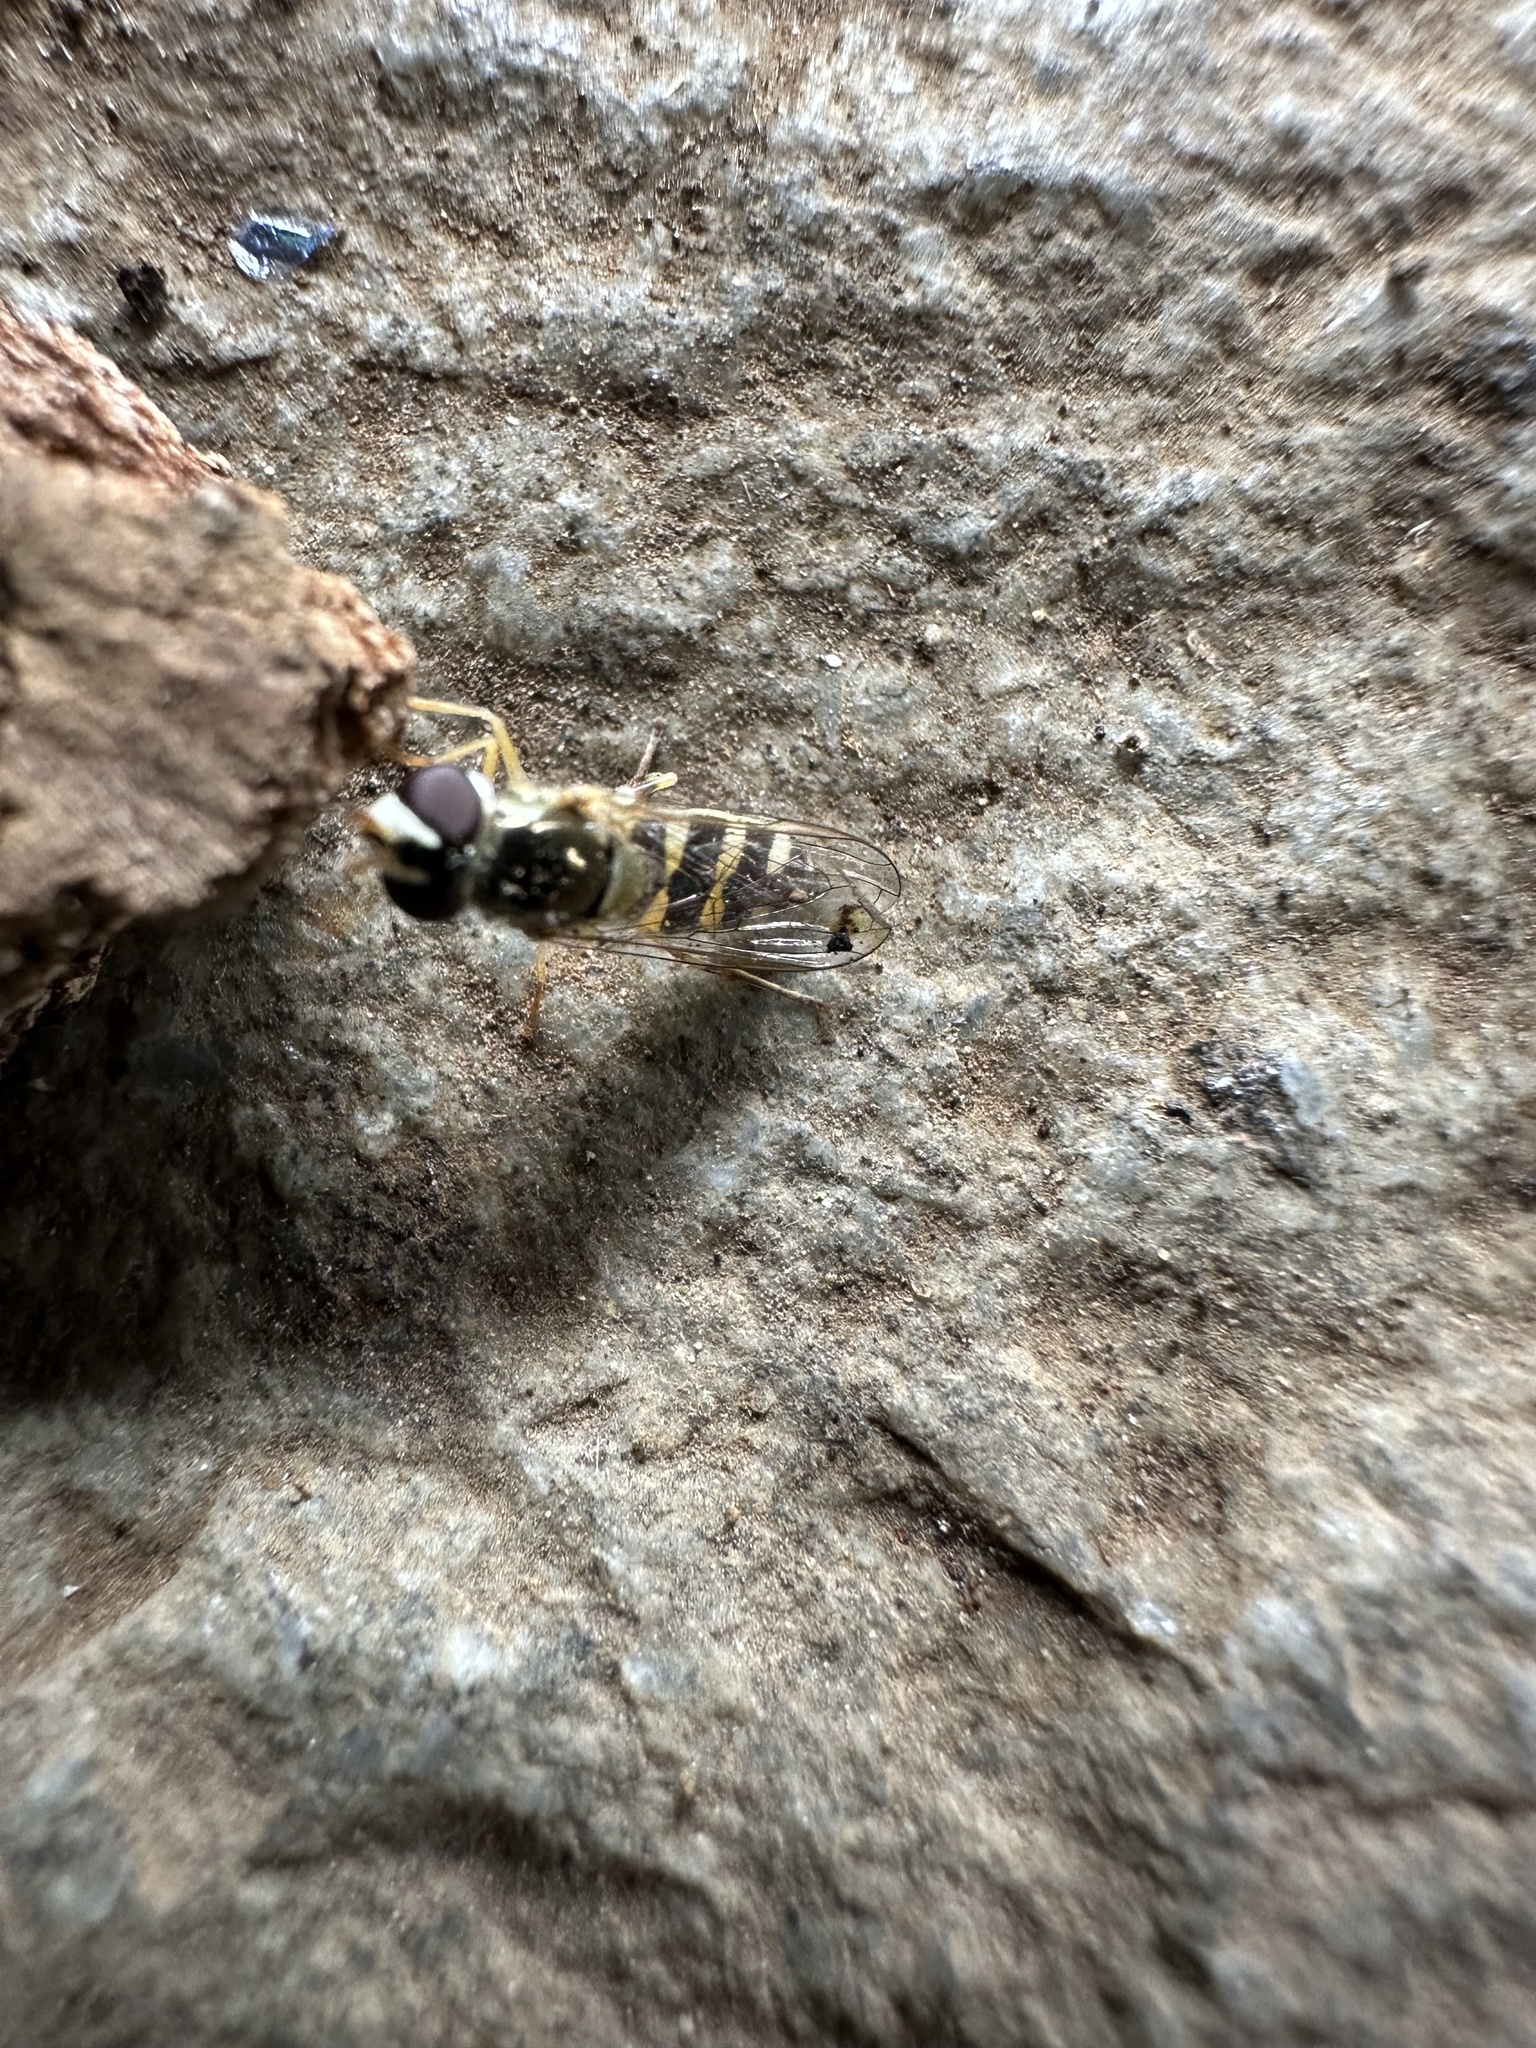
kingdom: Animalia
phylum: Arthropoda
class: Insecta
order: Diptera
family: Syrphidae
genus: Allograpta
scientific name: Allograpta hortensis
